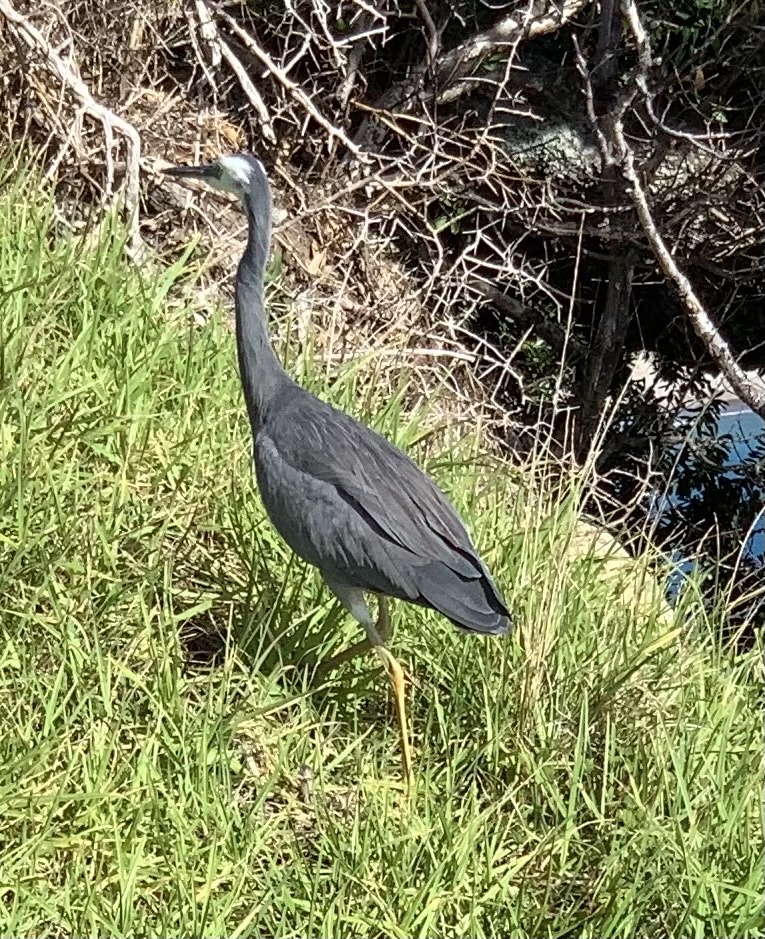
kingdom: Animalia
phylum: Chordata
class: Aves
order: Pelecaniformes
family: Ardeidae
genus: Egretta
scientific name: Egretta novaehollandiae
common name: White-faced heron
